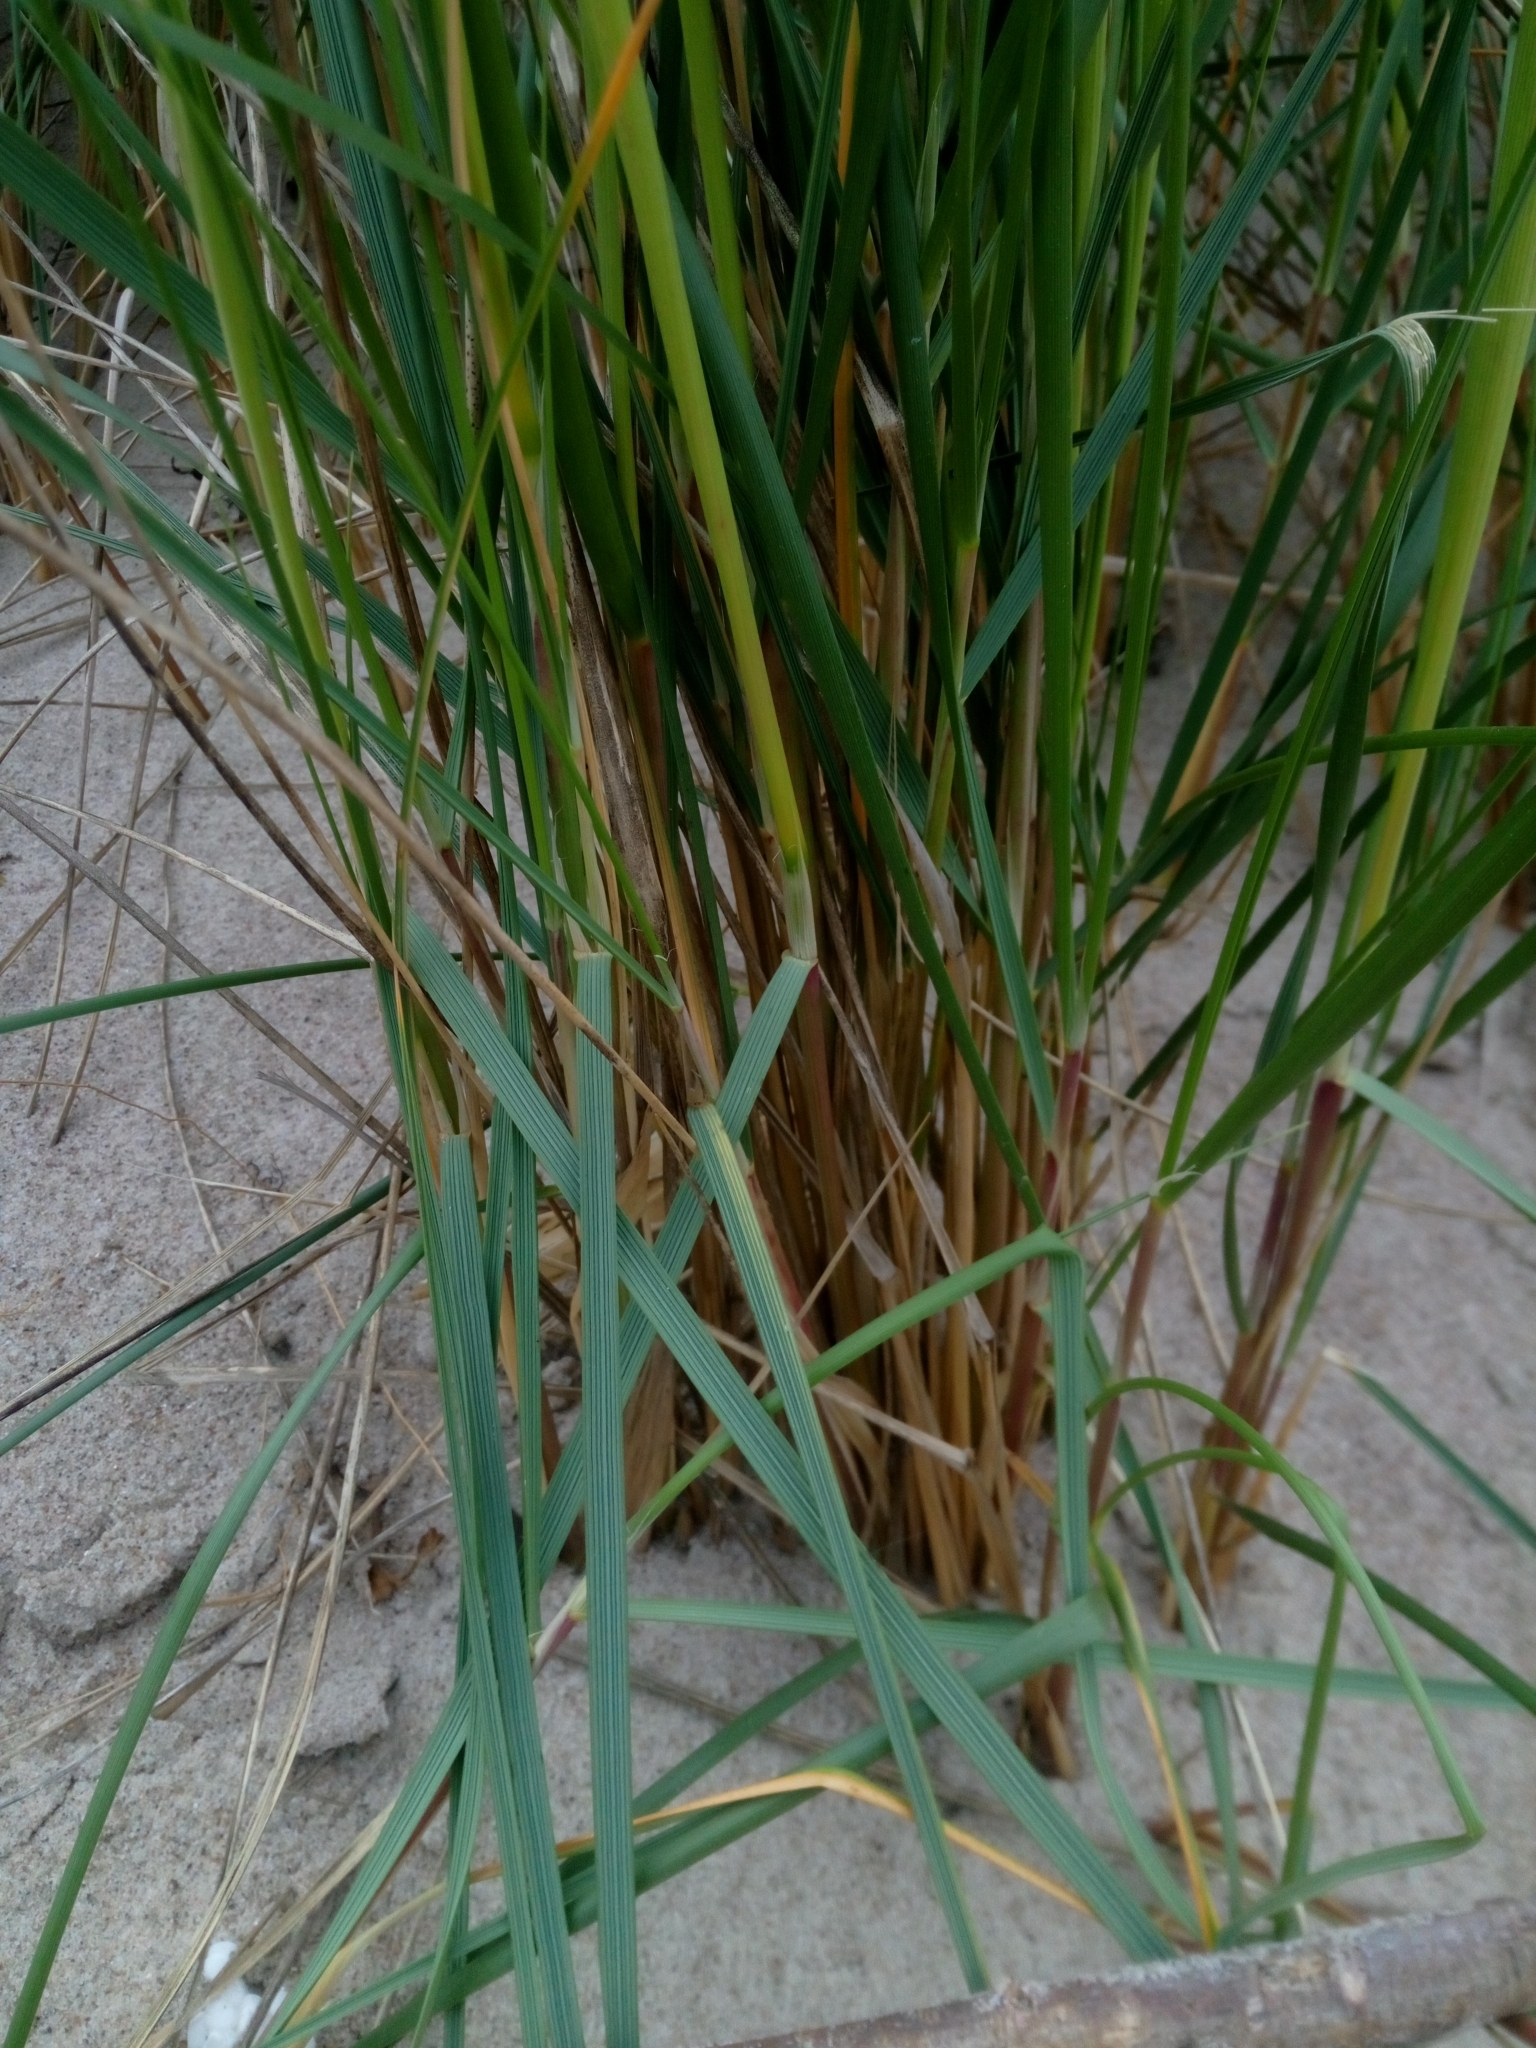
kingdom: Plantae
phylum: Tracheophyta
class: Liliopsida
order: Poales
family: Poaceae
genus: Calamagrostis
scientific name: Calamagrostis arenaria
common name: European beachgrass
